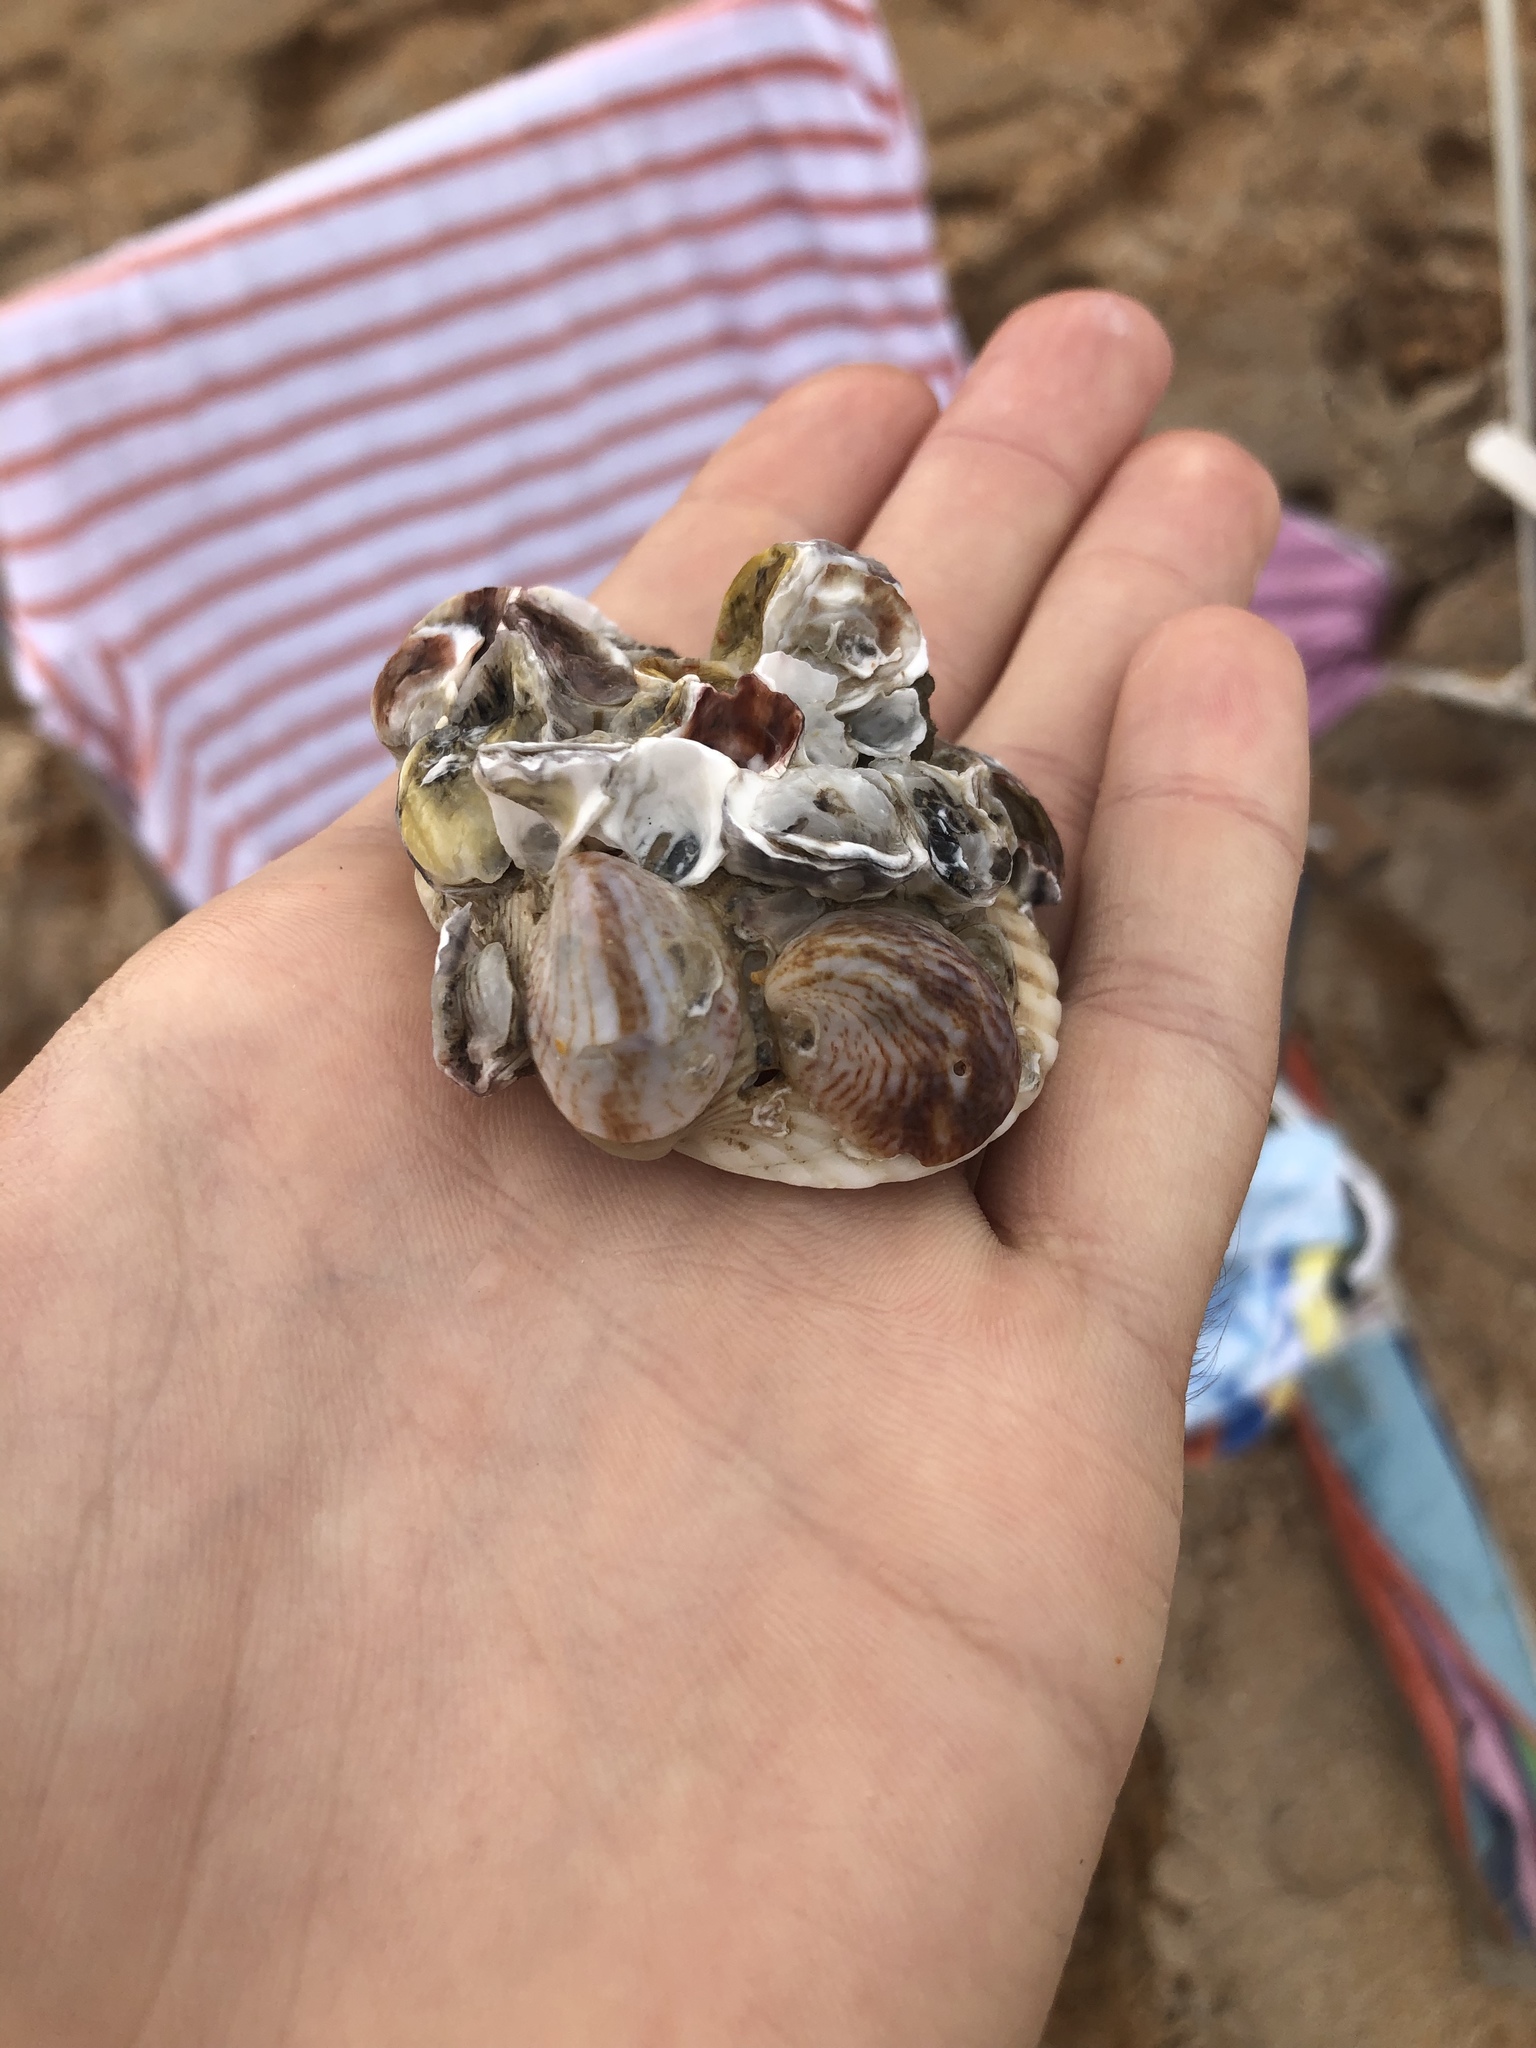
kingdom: Animalia
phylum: Mollusca
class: Gastropoda
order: Littorinimorpha
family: Calyptraeidae
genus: Crepidula
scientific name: Crepidula fornicata
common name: Slipper limpet
